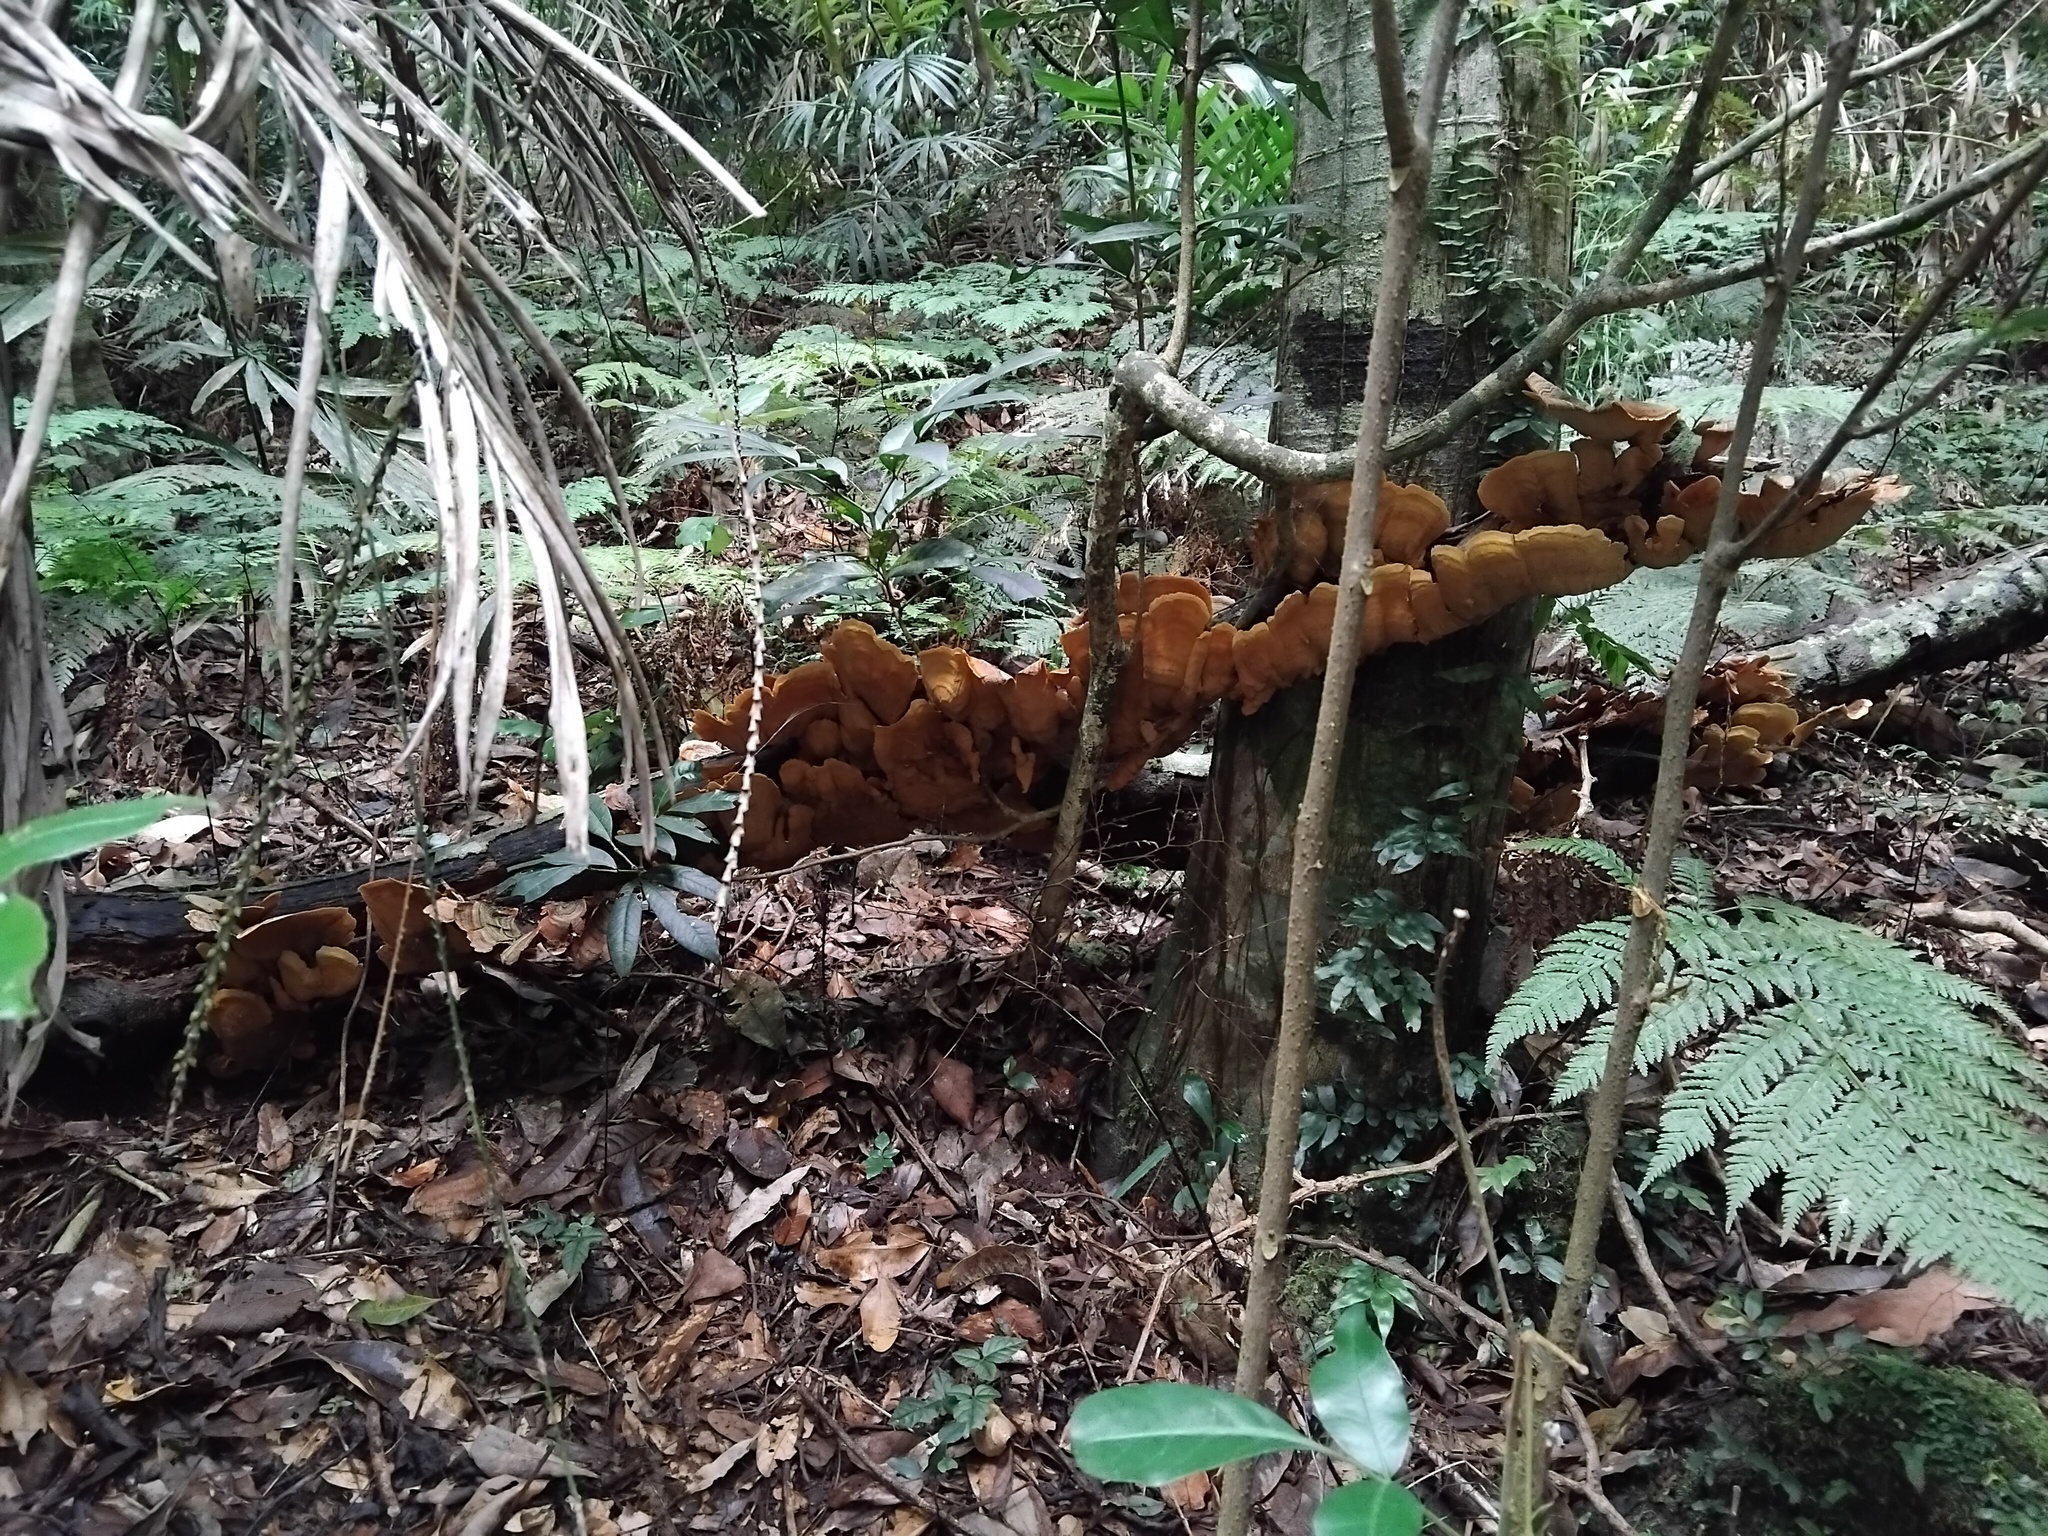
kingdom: Fungi
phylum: Basidiomycota
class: Agaricomycetes
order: Russulales
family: Stereaceae
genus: Stereum
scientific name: Stereum ostrea
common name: False turkeytail
